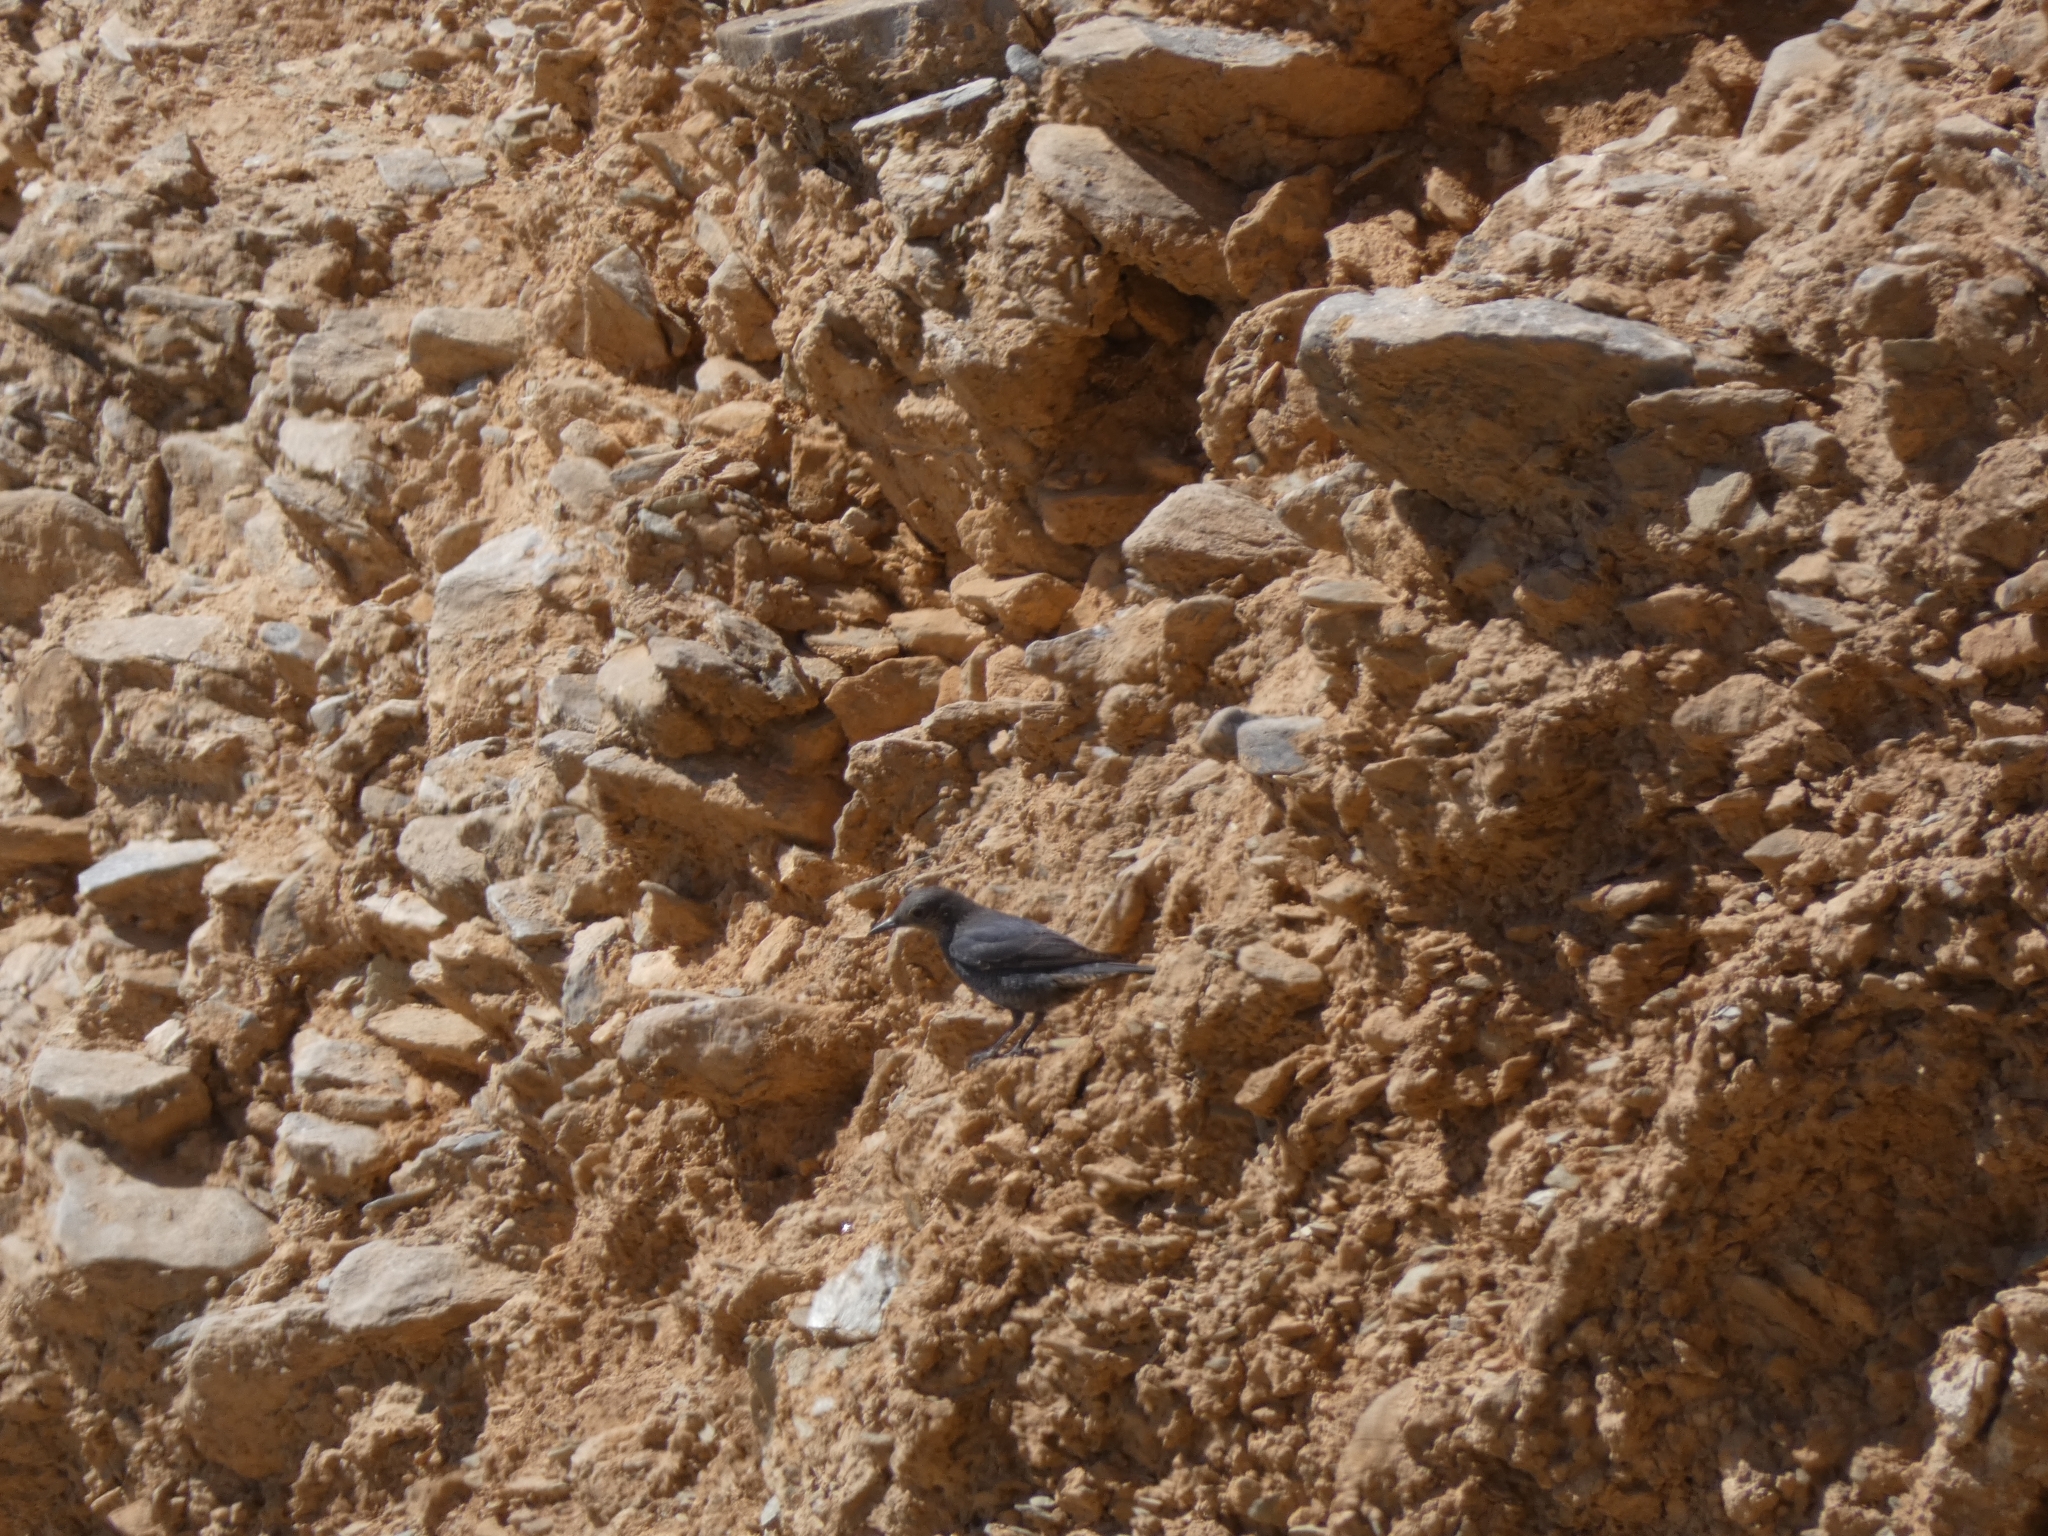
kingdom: Animalia
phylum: Chordata
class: Aves
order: Passeriformes
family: Muscicapidae
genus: Monticola
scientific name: Monticola solitarius
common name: Blue rock thrush
